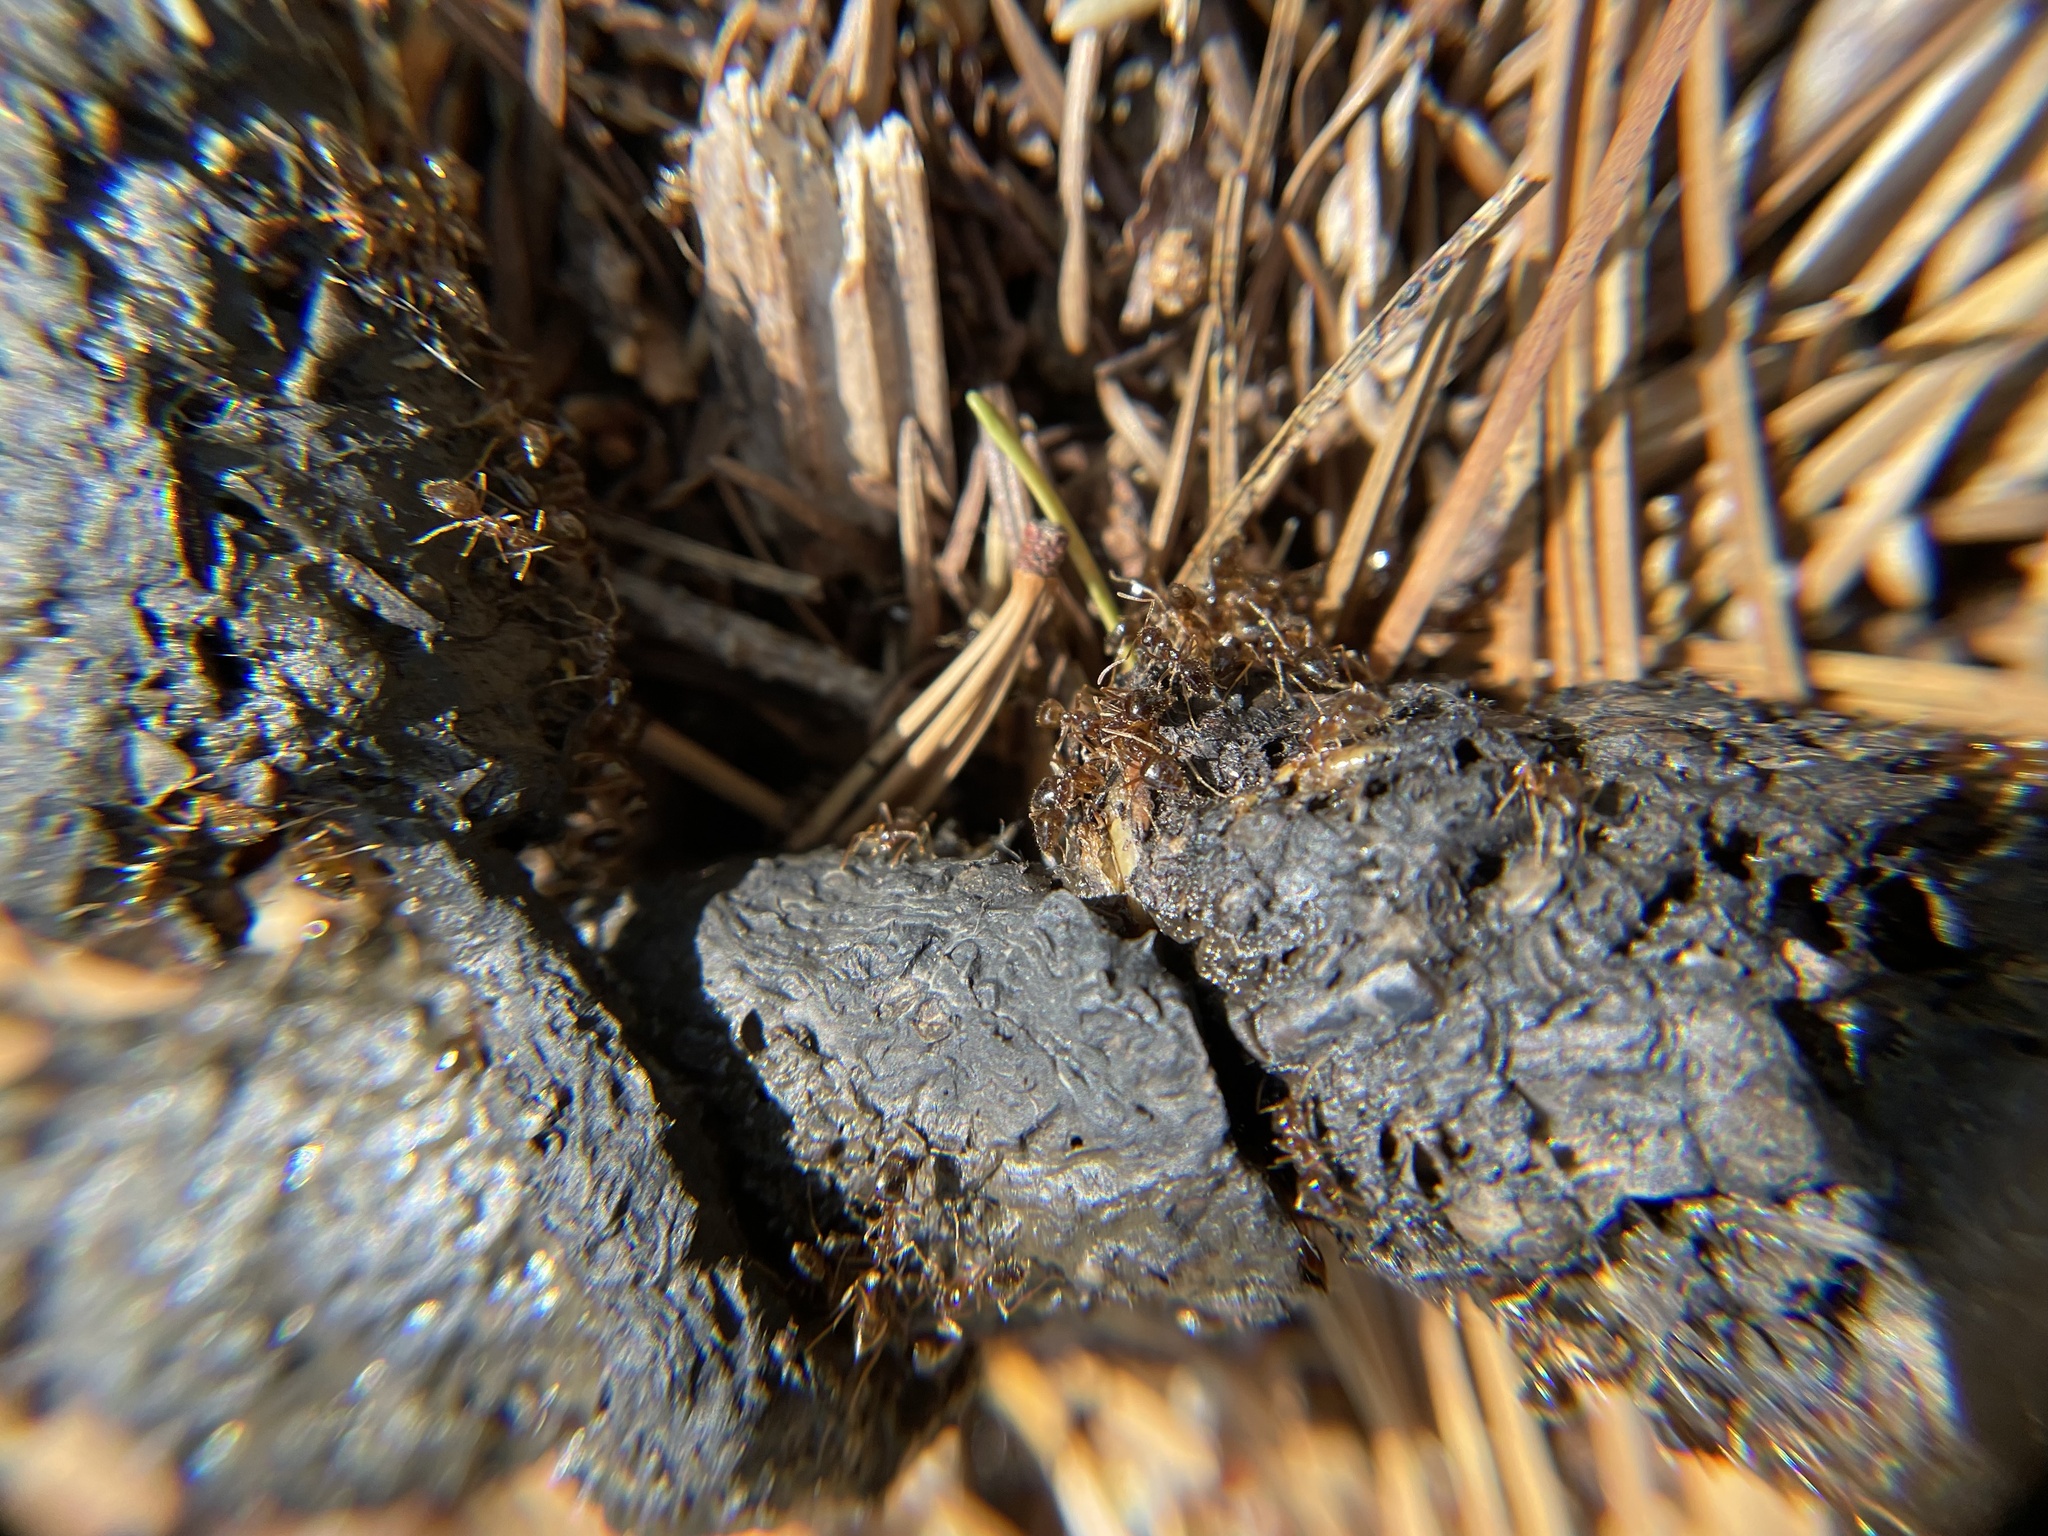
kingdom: Animalia
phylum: Arthropoda
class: Insecta
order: Hymenoptera
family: Formicidae
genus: Prenolepis
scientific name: Prenolepis imparis
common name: Small honey ant
